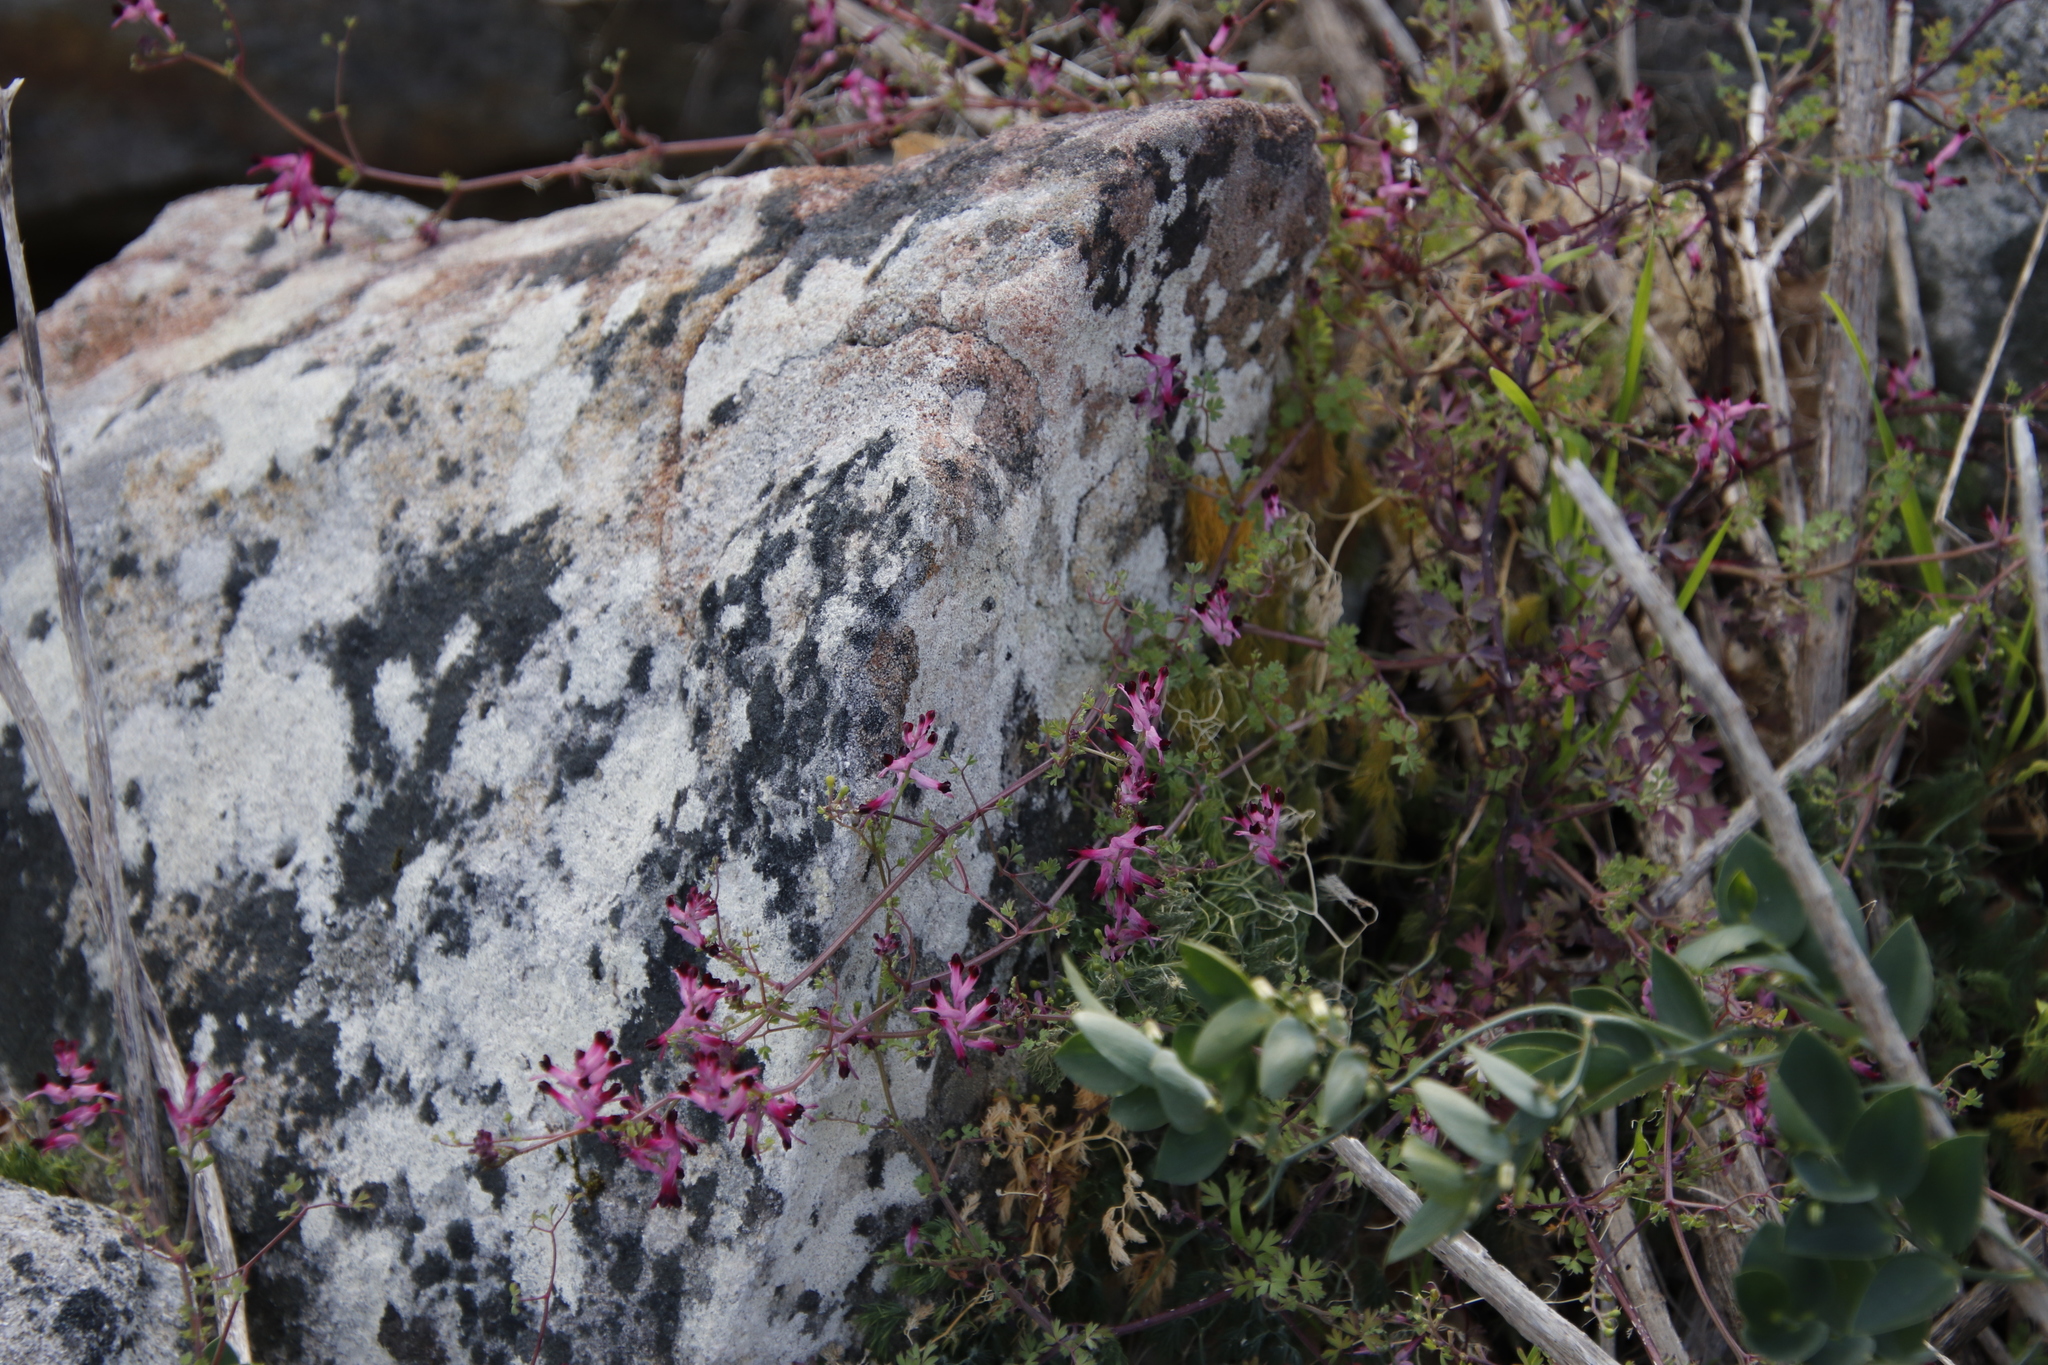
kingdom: Plantae
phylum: Tracheophyta
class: Magnoliopsida
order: Ranunculales
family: Papaveraceae
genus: Fumaria
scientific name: Fumaria muralis
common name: Common ramping-fumitory
